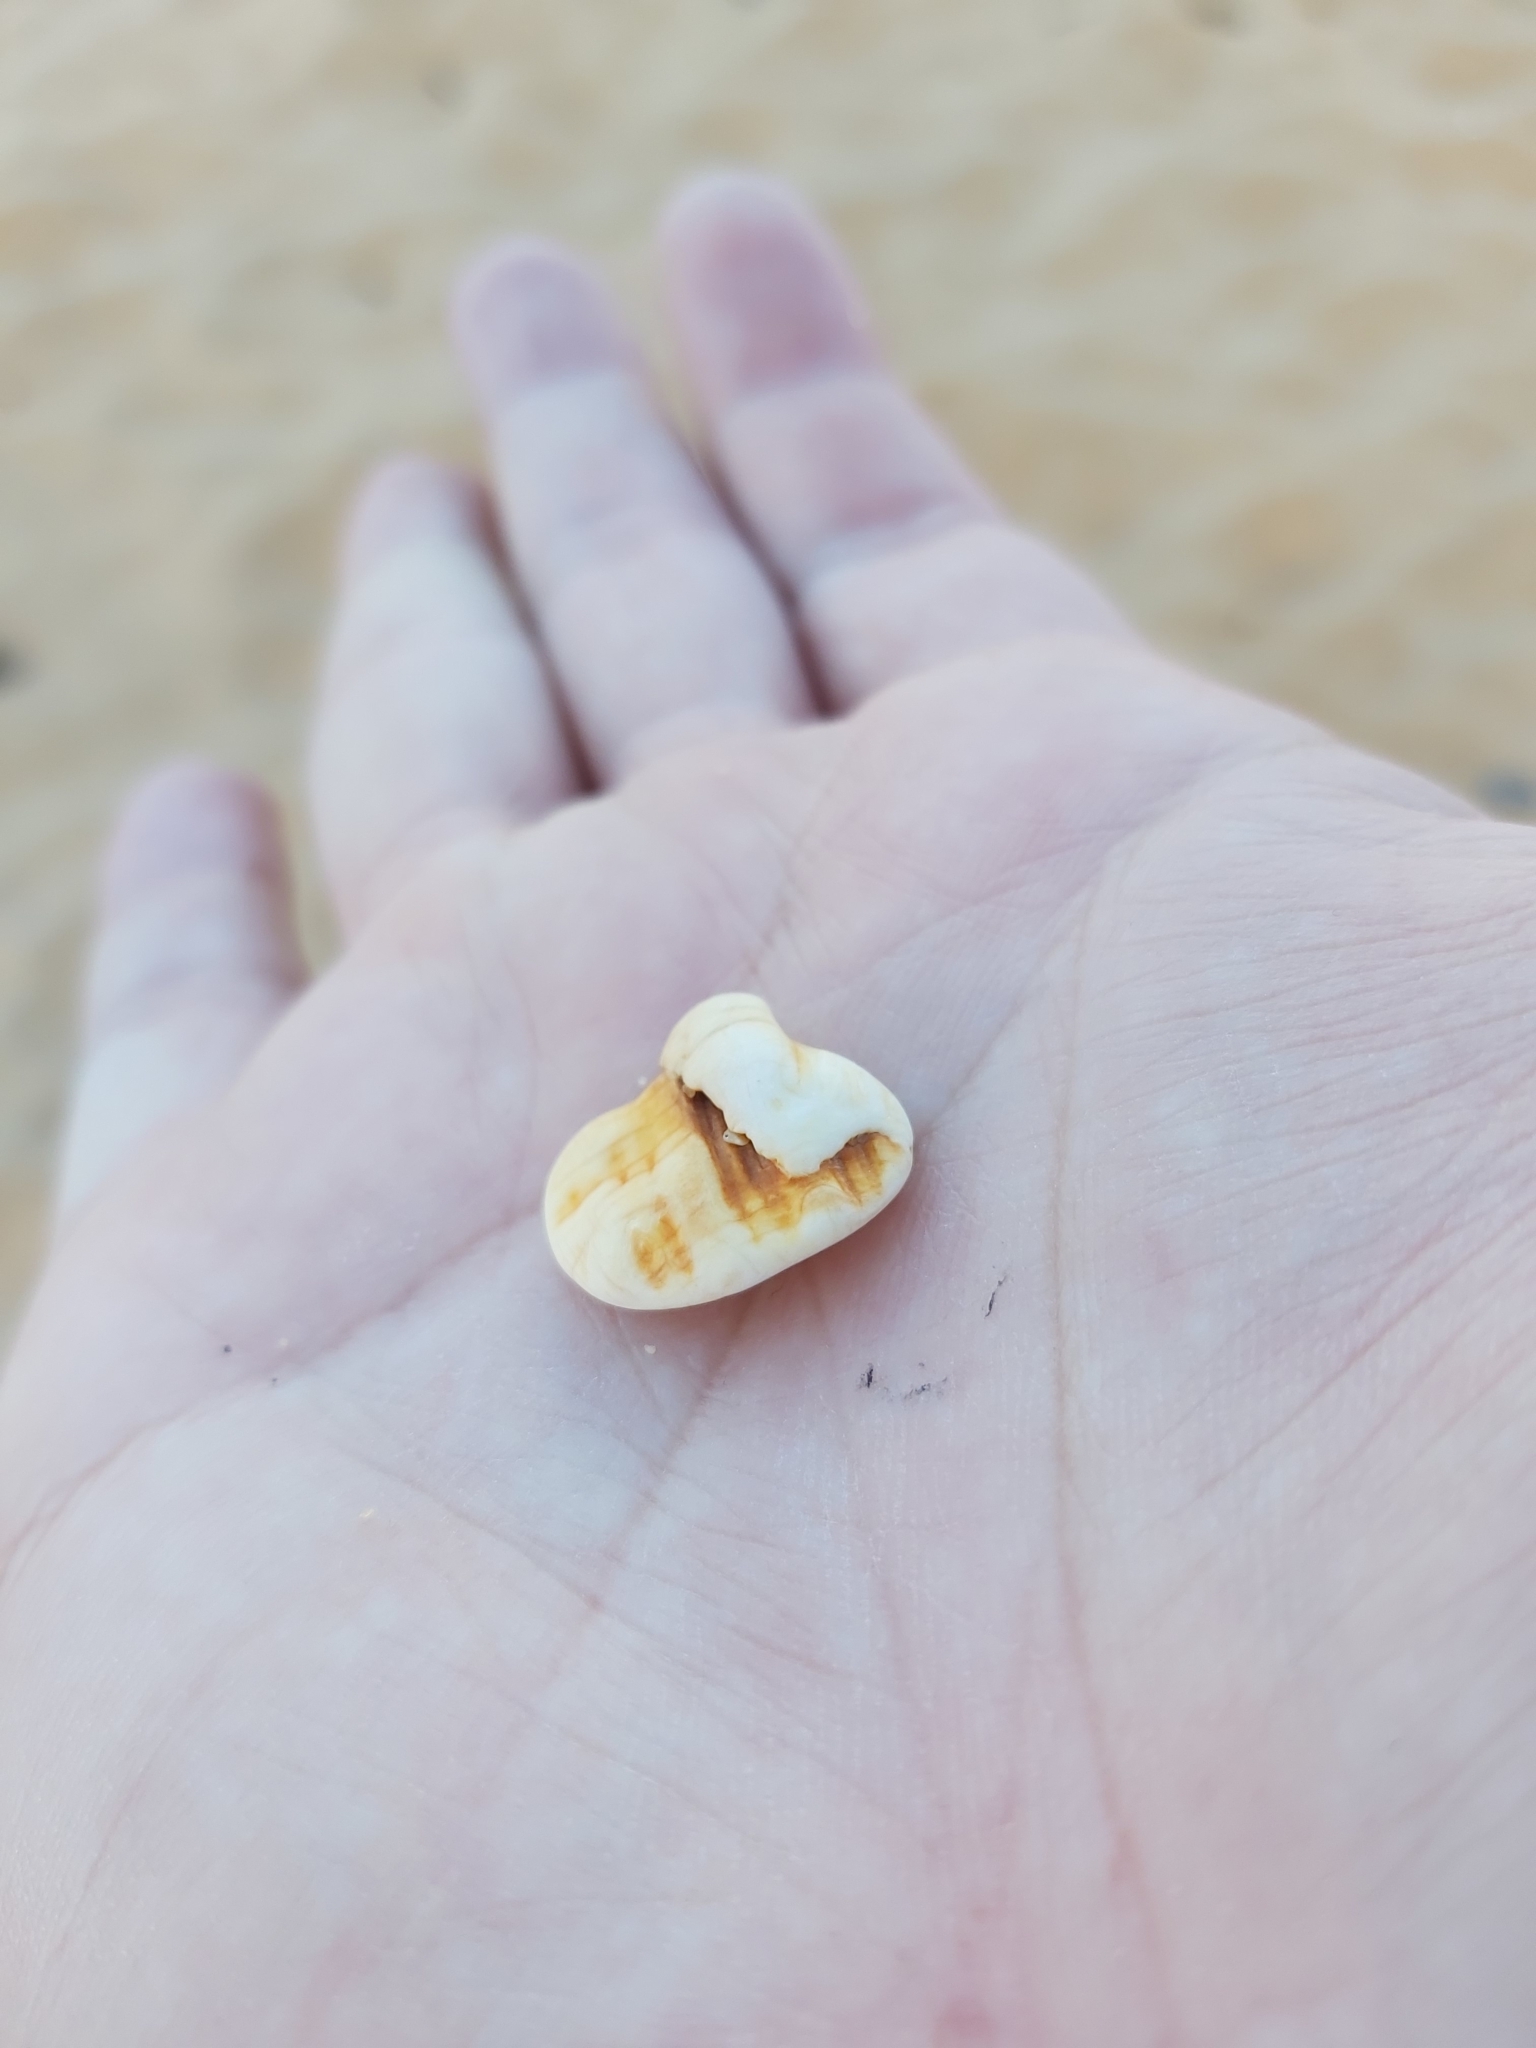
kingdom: Animalia
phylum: Mollusca
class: Gastropoda
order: Littorinimorpha
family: Cymatiidae
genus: Cabestana
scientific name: Cabestana spengleri
